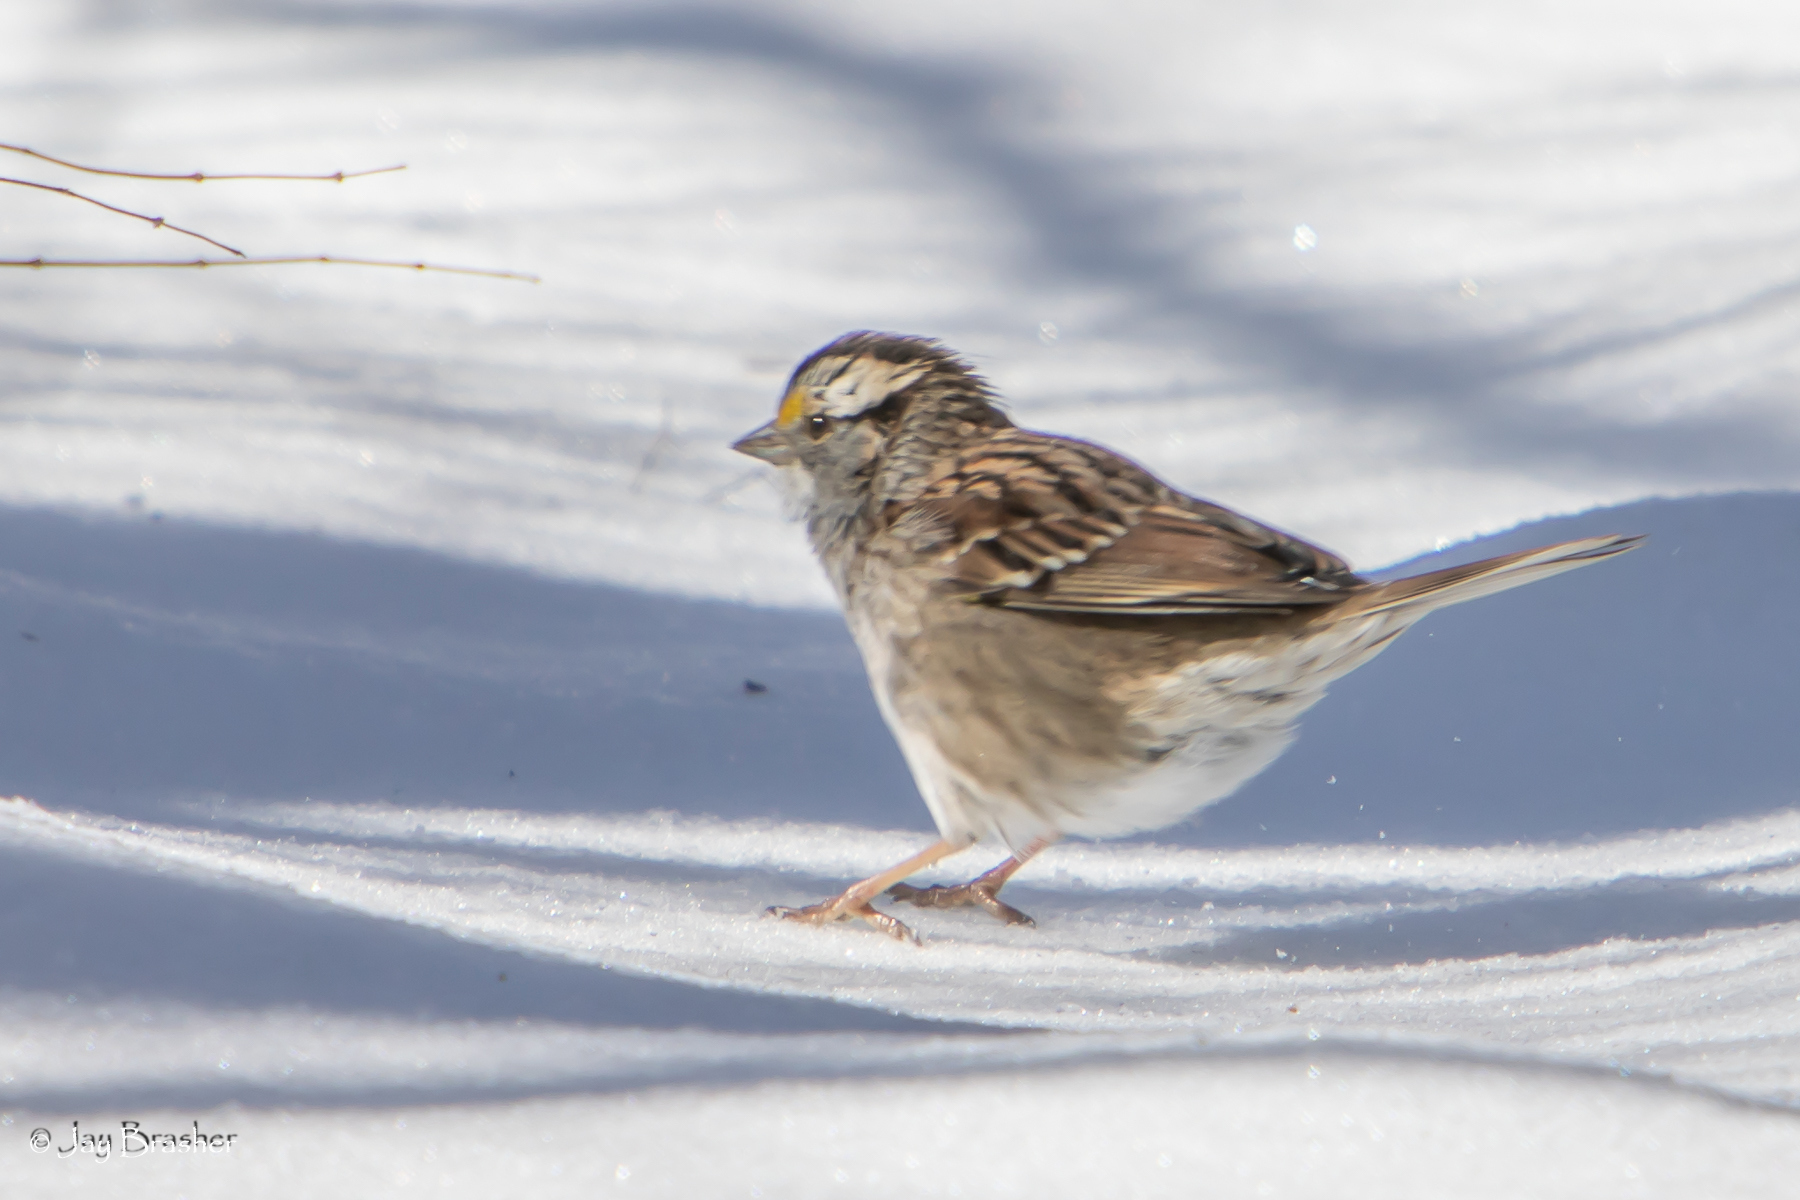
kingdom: Animalia
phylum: Chordata
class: Aves
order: Passeriformes
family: Passerellidae
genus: Zonotrichia
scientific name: Zonotrichia albicollis
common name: White-throated sparrow
